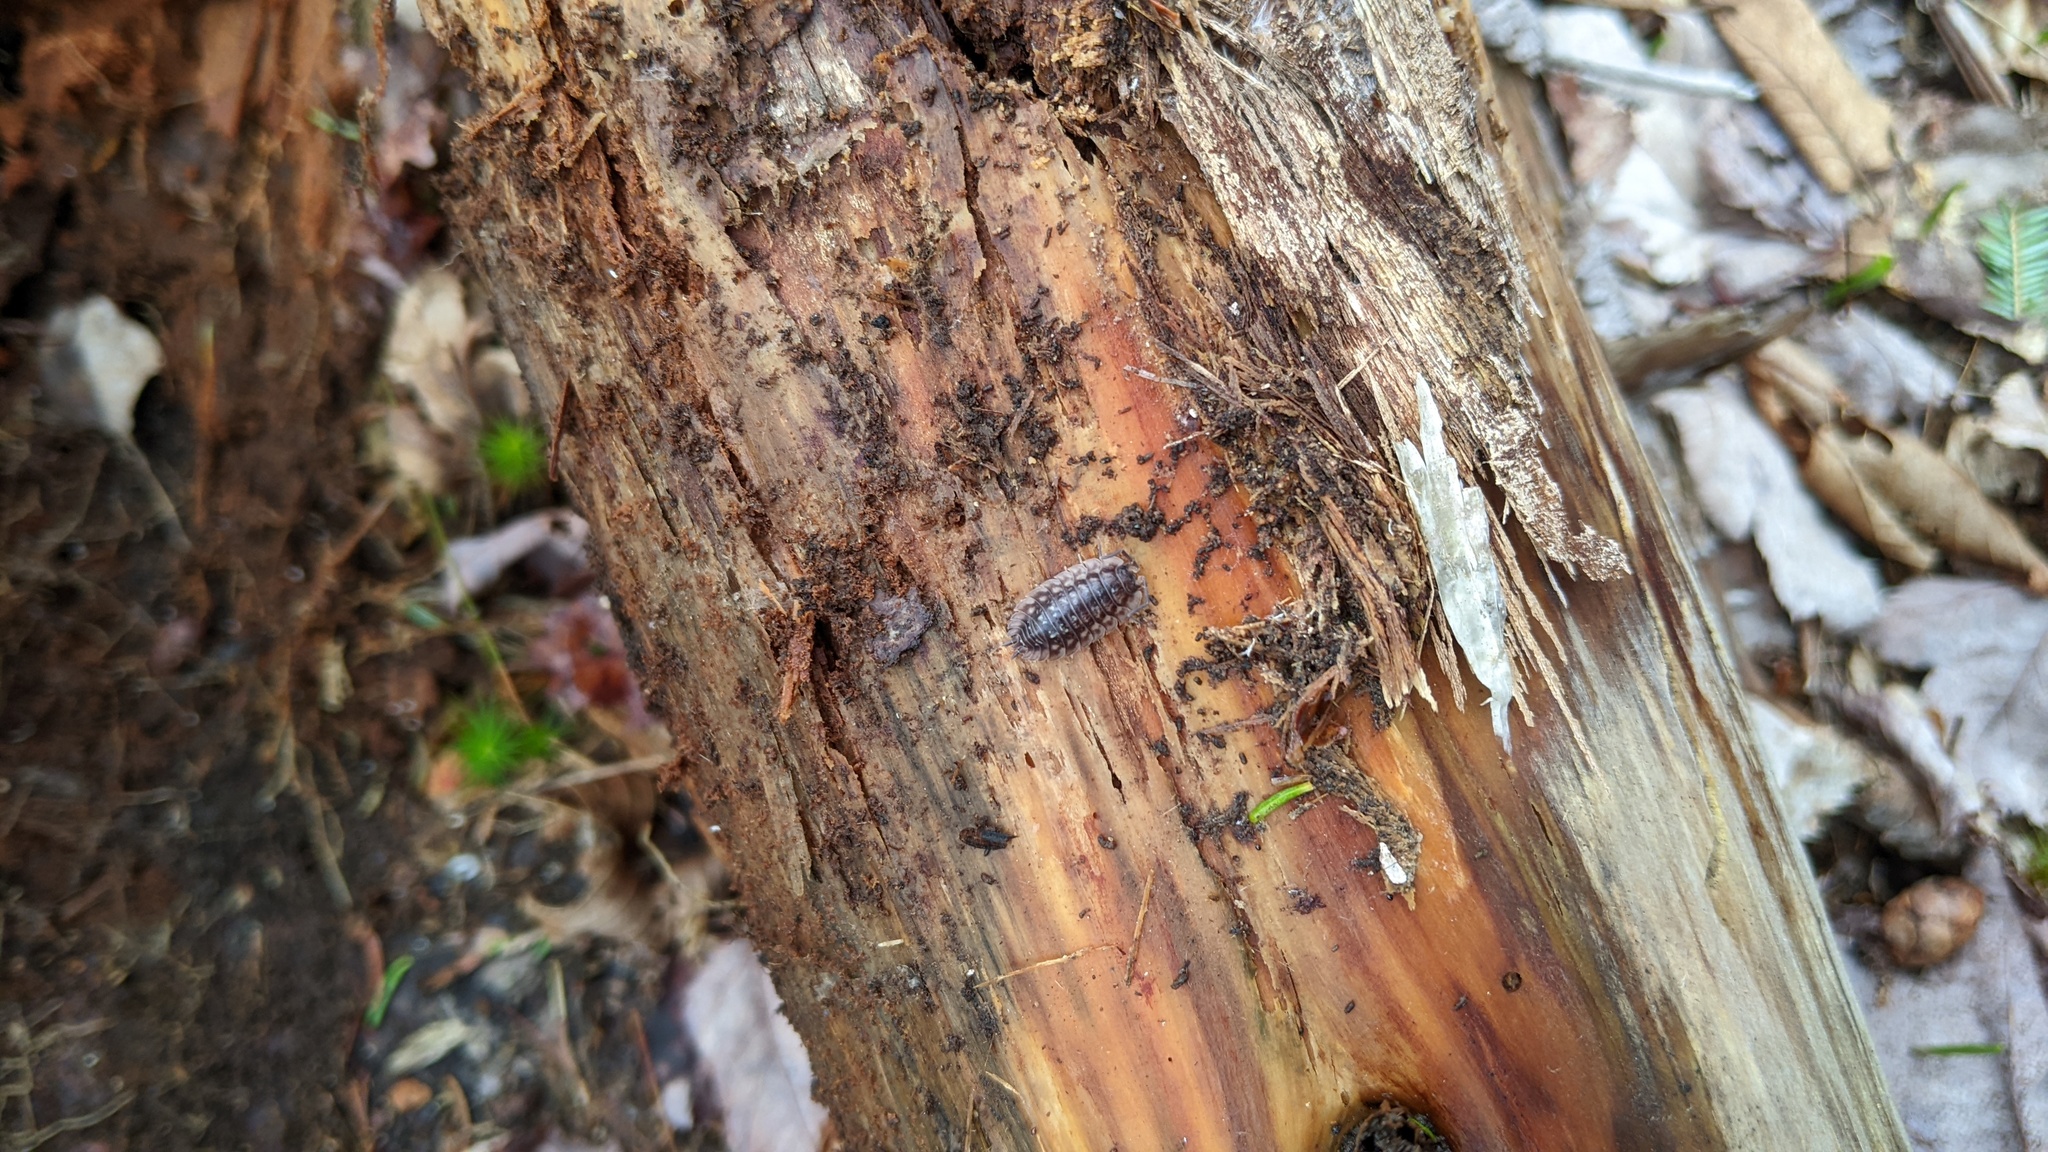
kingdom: Animalia
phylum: Arthropoda
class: Malacostraca
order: Isopoda
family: Oniscidae
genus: Oniscus
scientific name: Oniscus asellus
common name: Common shiny woodlouse
